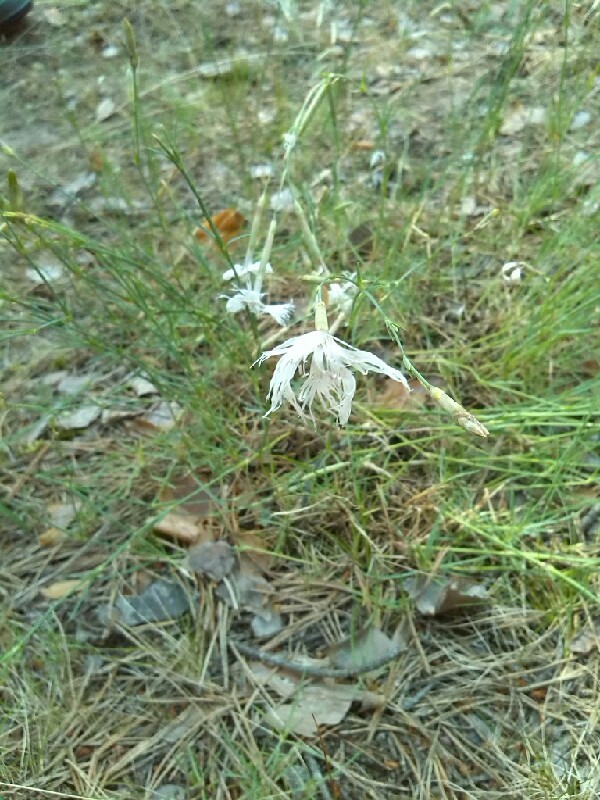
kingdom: Plantae
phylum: Tracheophyta
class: Magnoliopsida
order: Caryophyllales
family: Caryophyllaceae
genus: Dianthus
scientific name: Dianthus arenarius
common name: Stone pink
